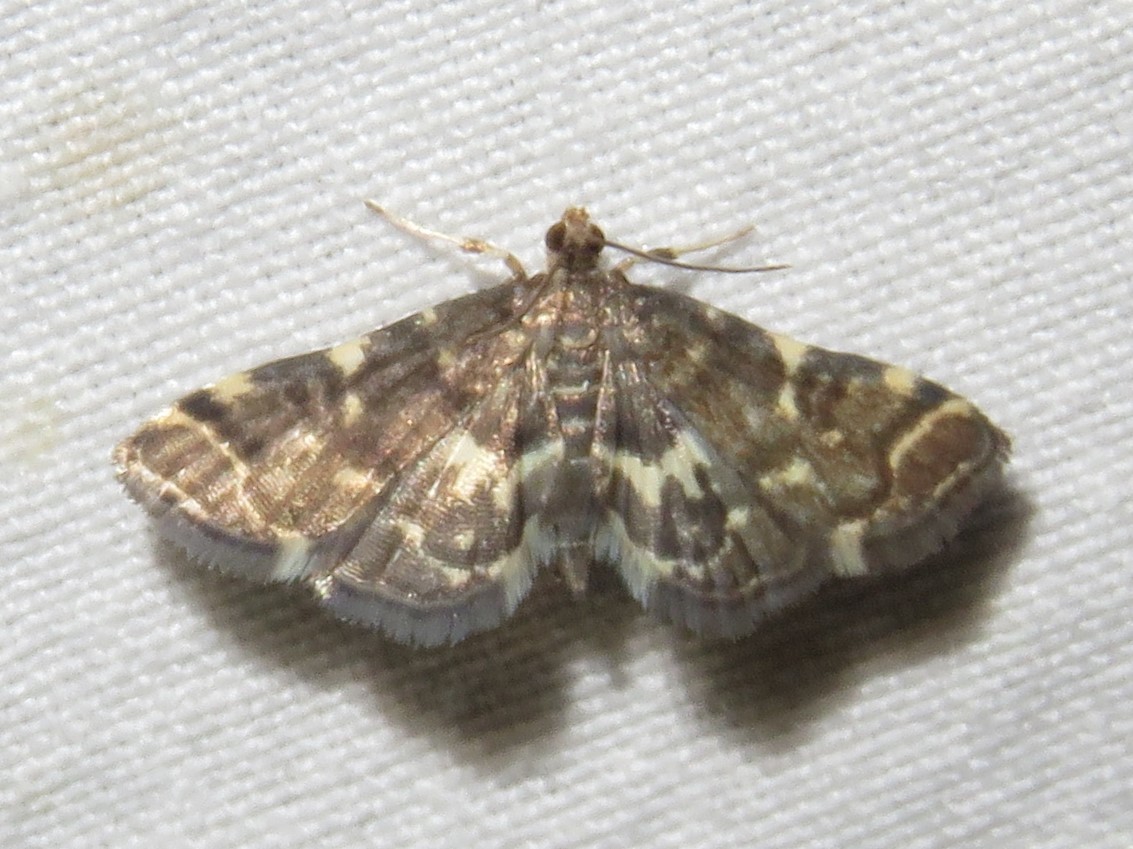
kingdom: Animalia
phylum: Arthropoda
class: Insecta
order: Lepidoptera
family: Crambidae
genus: Anageshna
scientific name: Anageshna primordialis
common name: Yellow-spotted webworm moth
